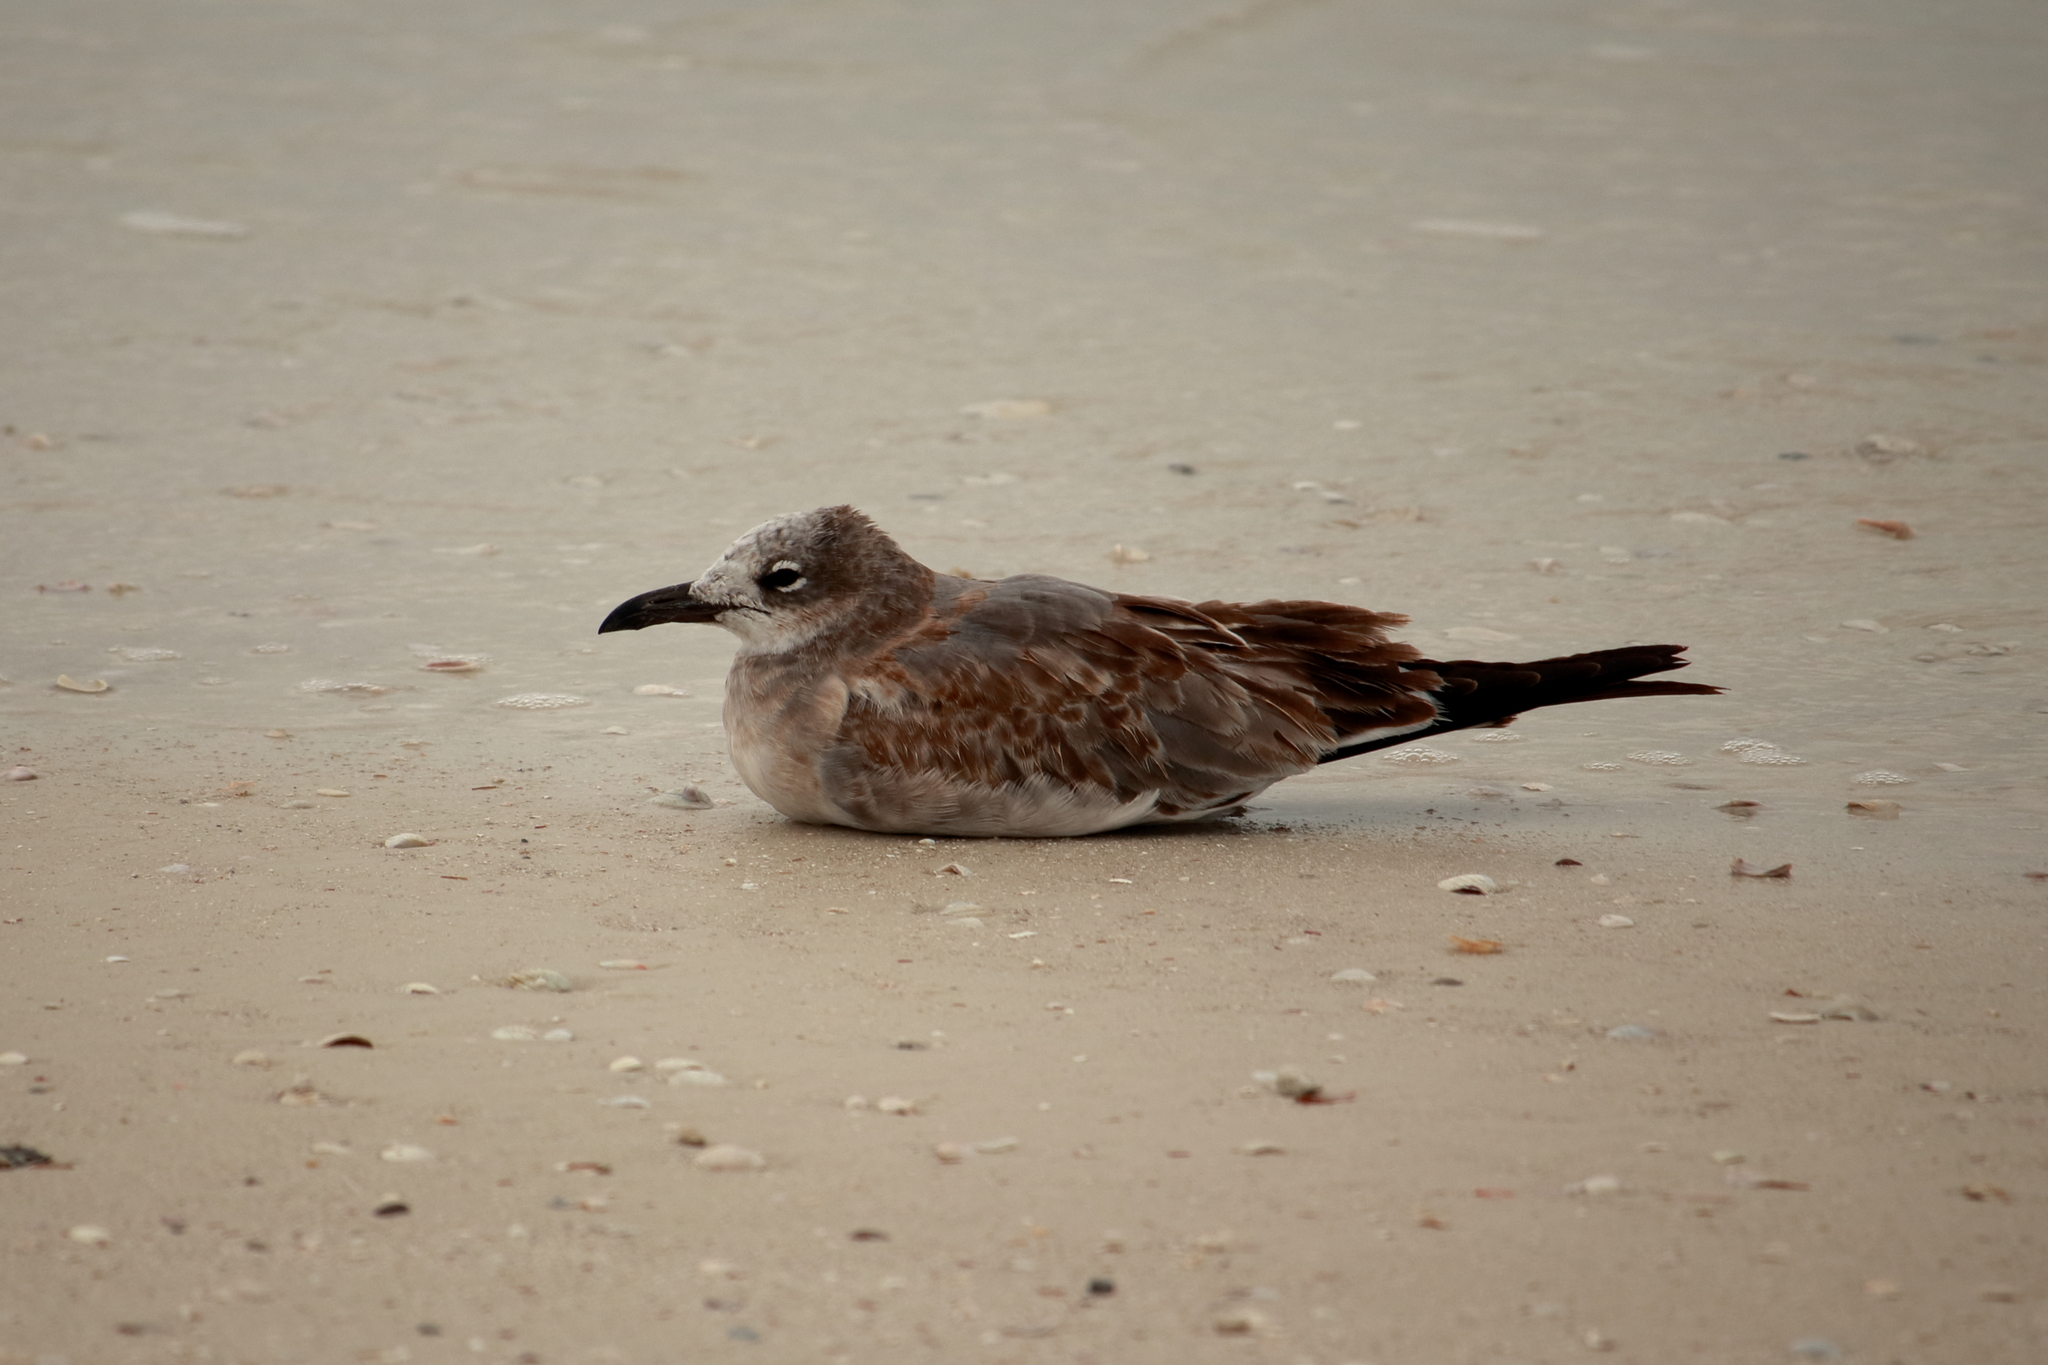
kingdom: Animalia
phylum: Chordata
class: Aves
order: Charadriiformes
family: Laridae
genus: Leucophaeus
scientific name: Leucophaeus atricilla
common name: Laughing gull
